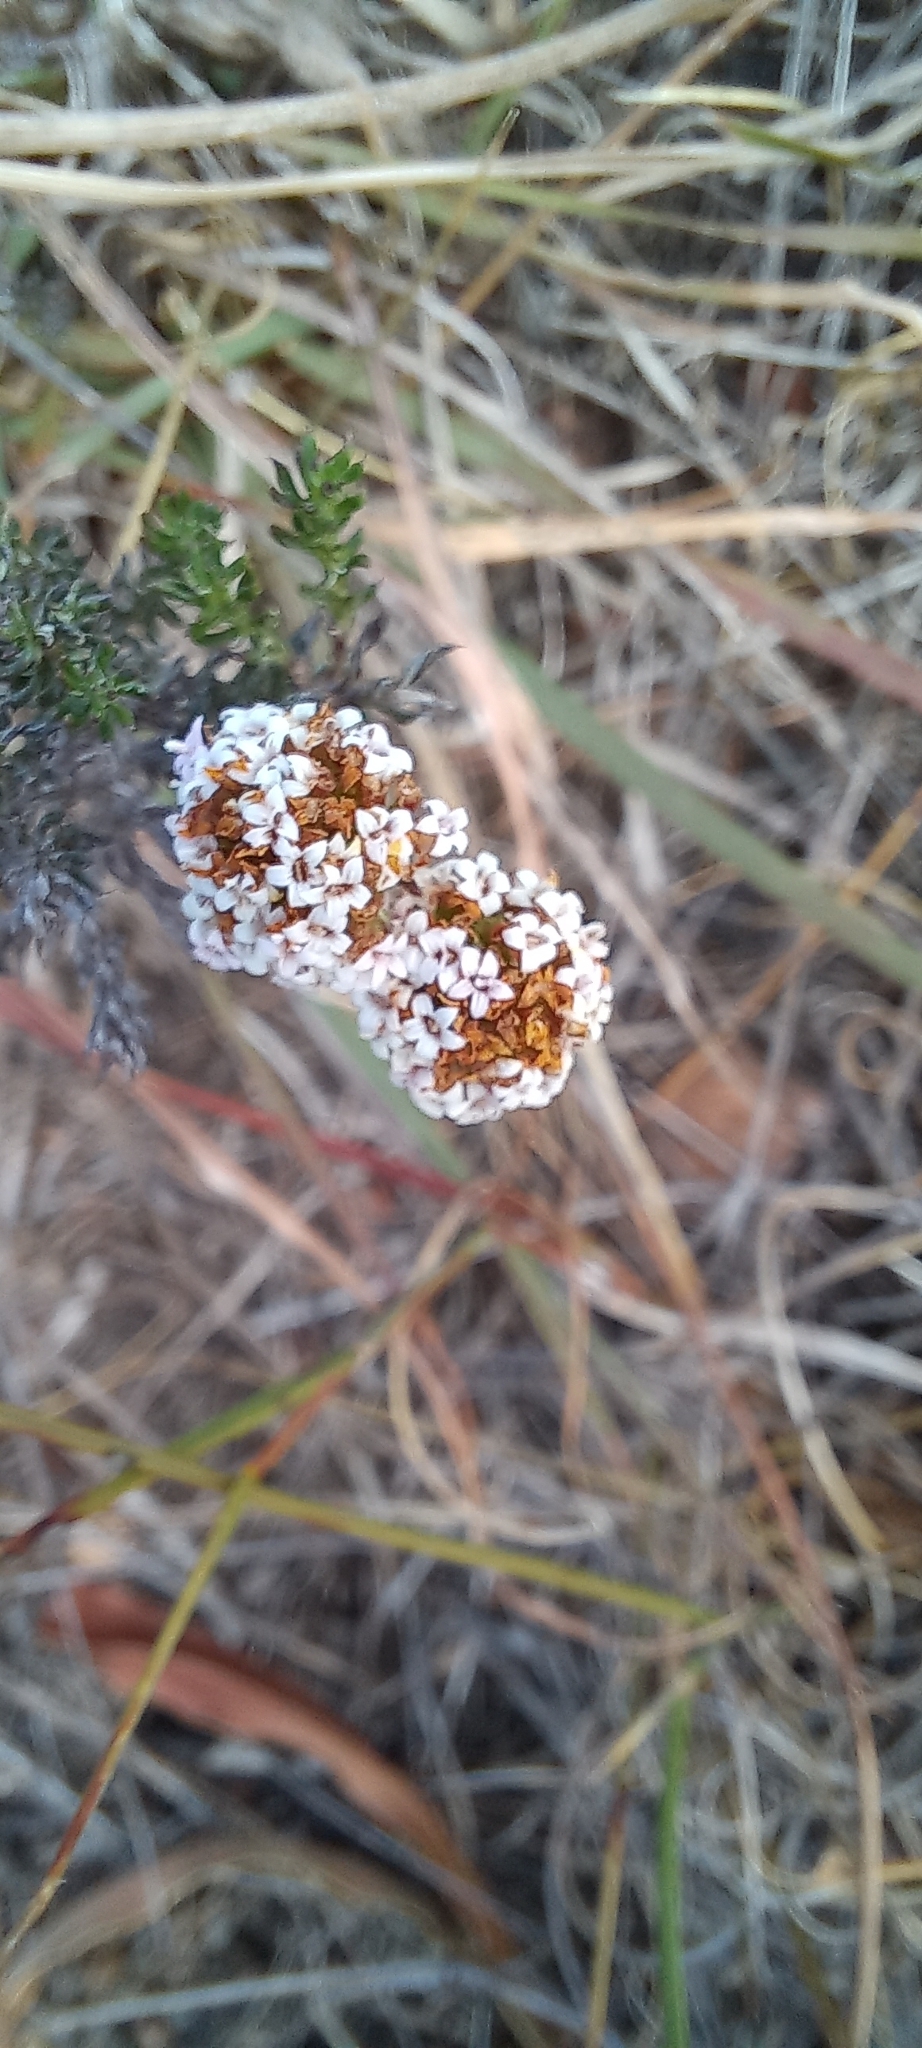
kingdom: Plantae
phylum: Tracheophyta
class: Magnoliopsida
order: Asterales
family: Asteraceae
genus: Stoebe
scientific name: Stoebe capitata
